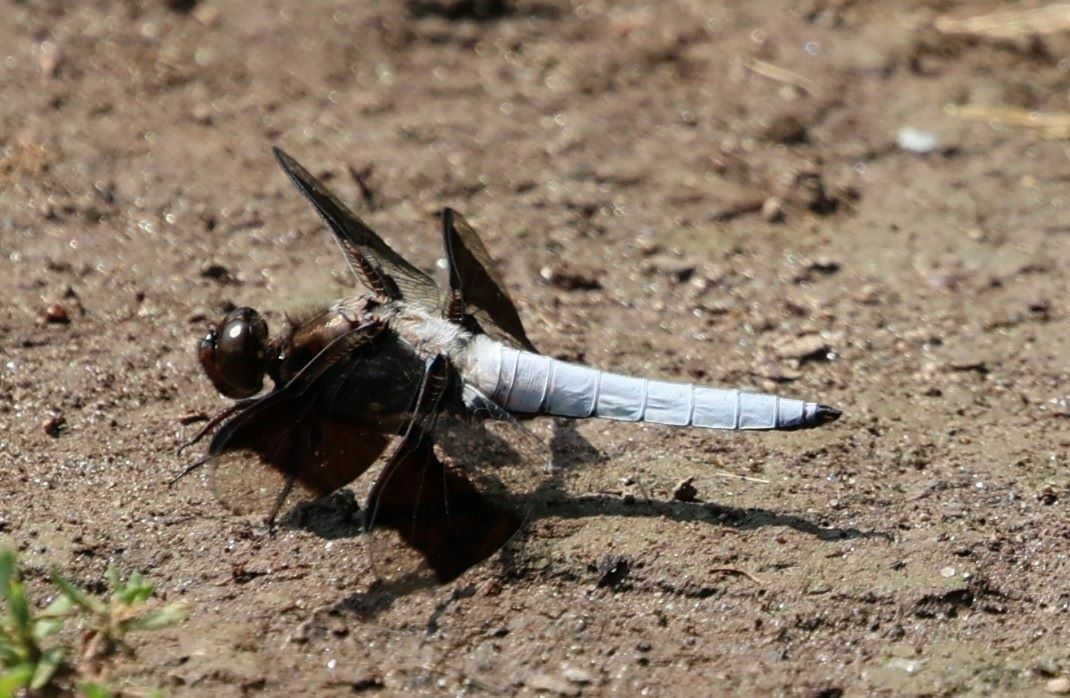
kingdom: Animalia
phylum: Arthropoda
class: Insecta
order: Odonata
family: Libellulidae
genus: Plathemis
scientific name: Plathemis lydia
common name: Common whitetail
